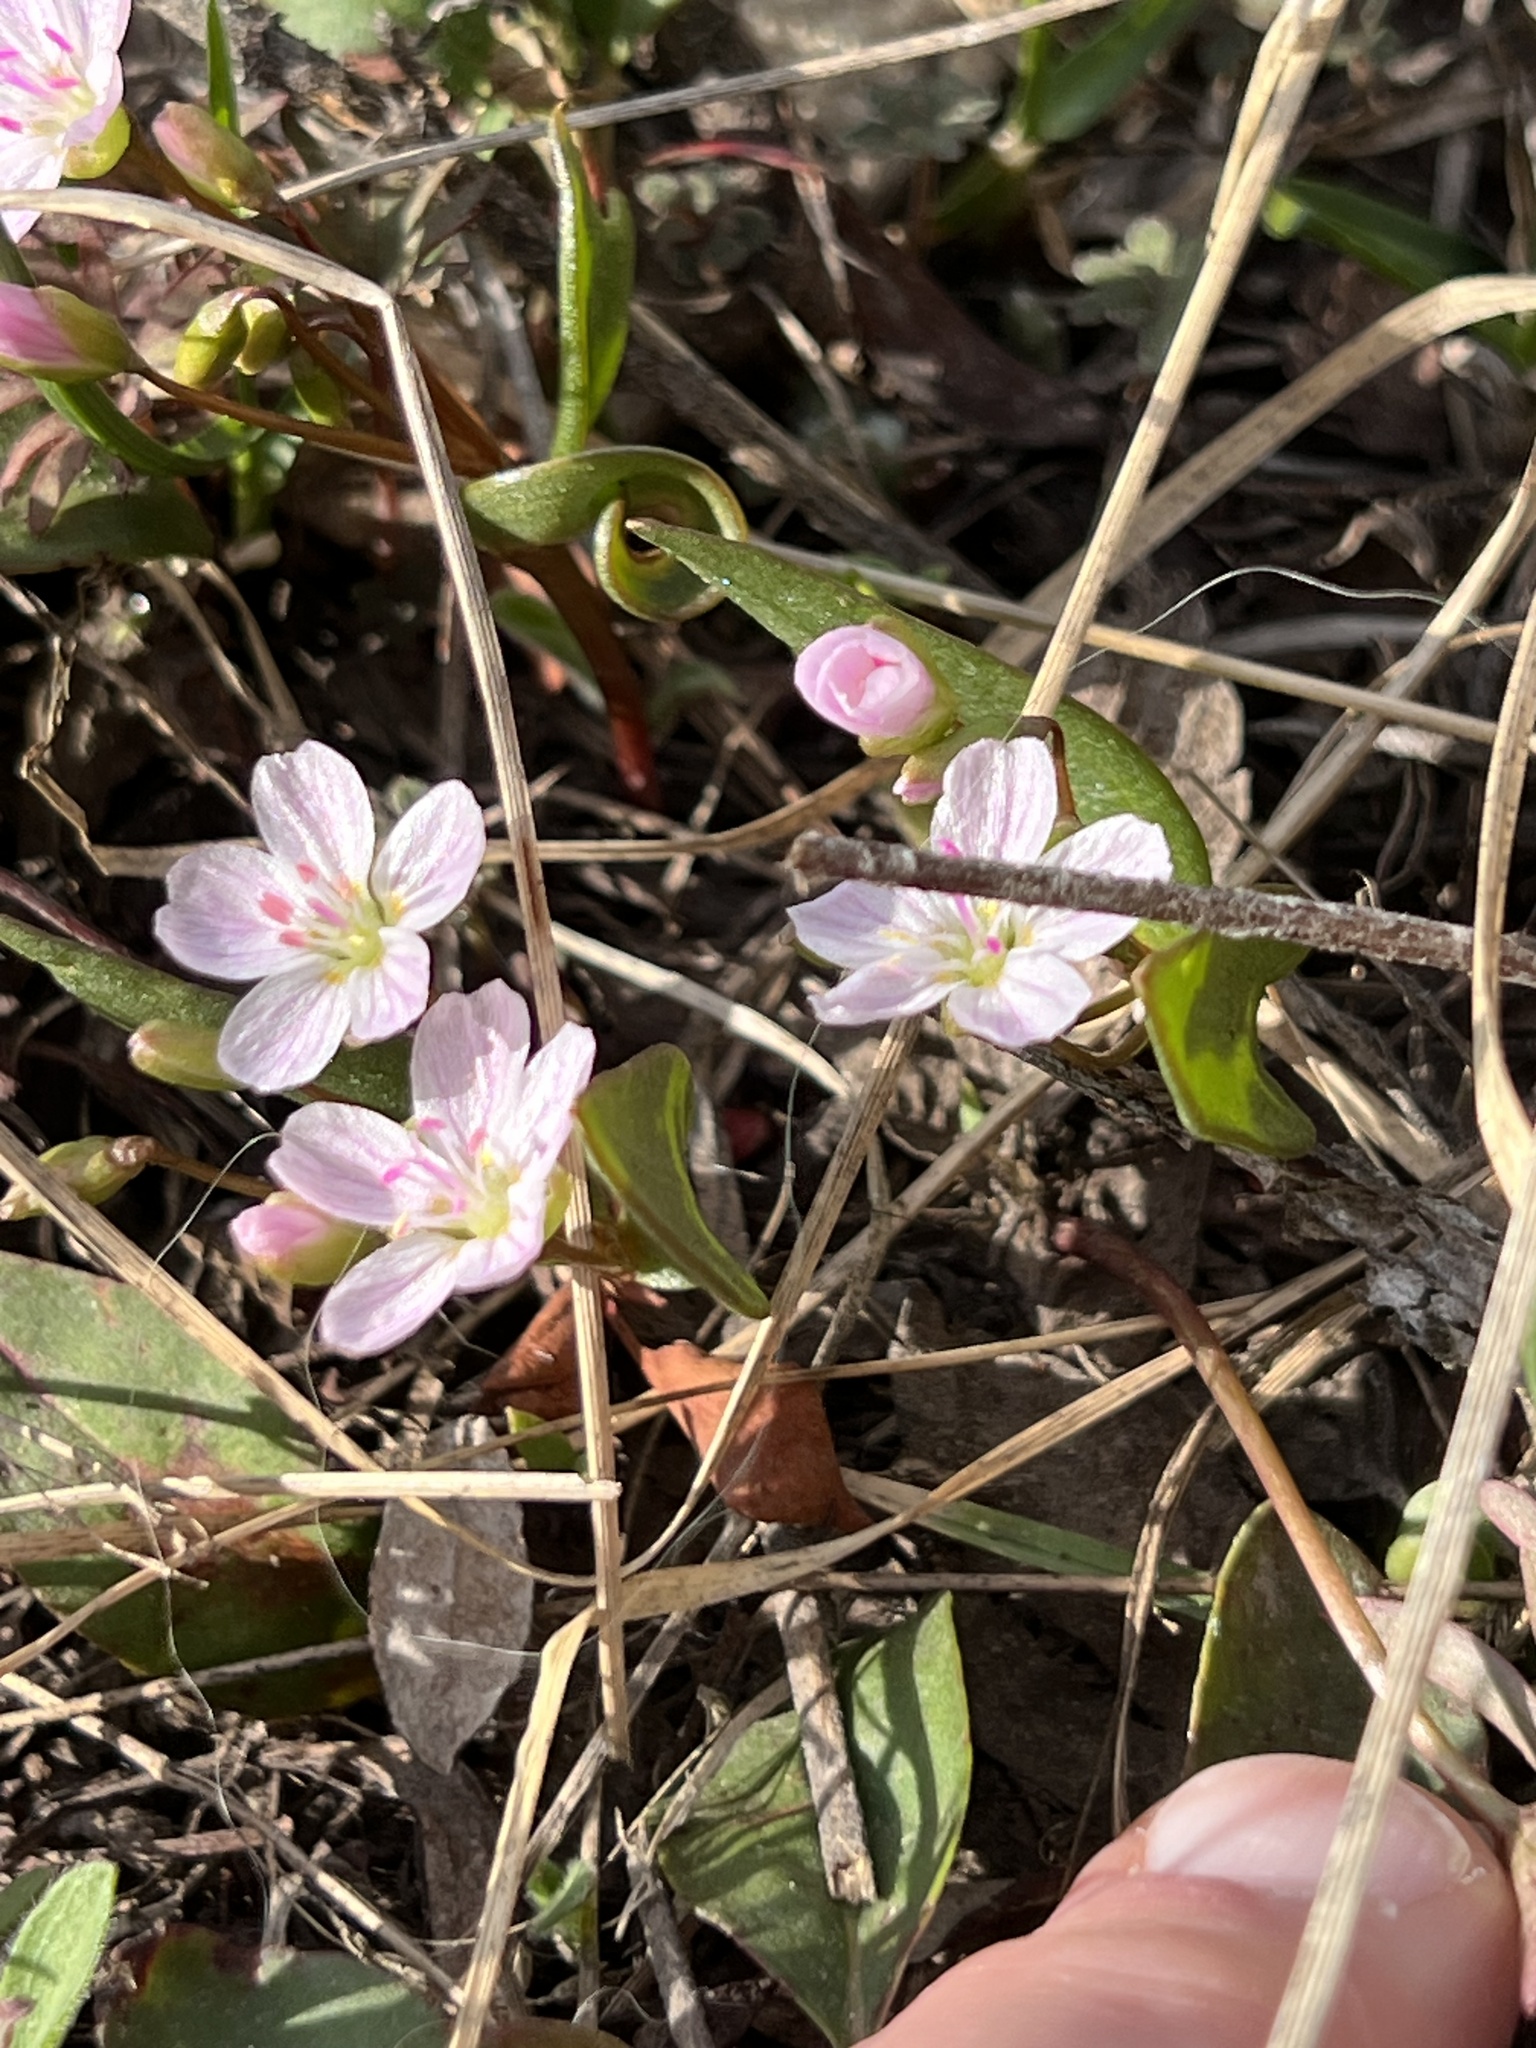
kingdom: Plantae
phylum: Tracheophyta
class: Magnoliopsida
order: Caryophyllales
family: Montiaceae
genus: Claytonia
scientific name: Claytonia lanceolata
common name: Western spring-beauty
